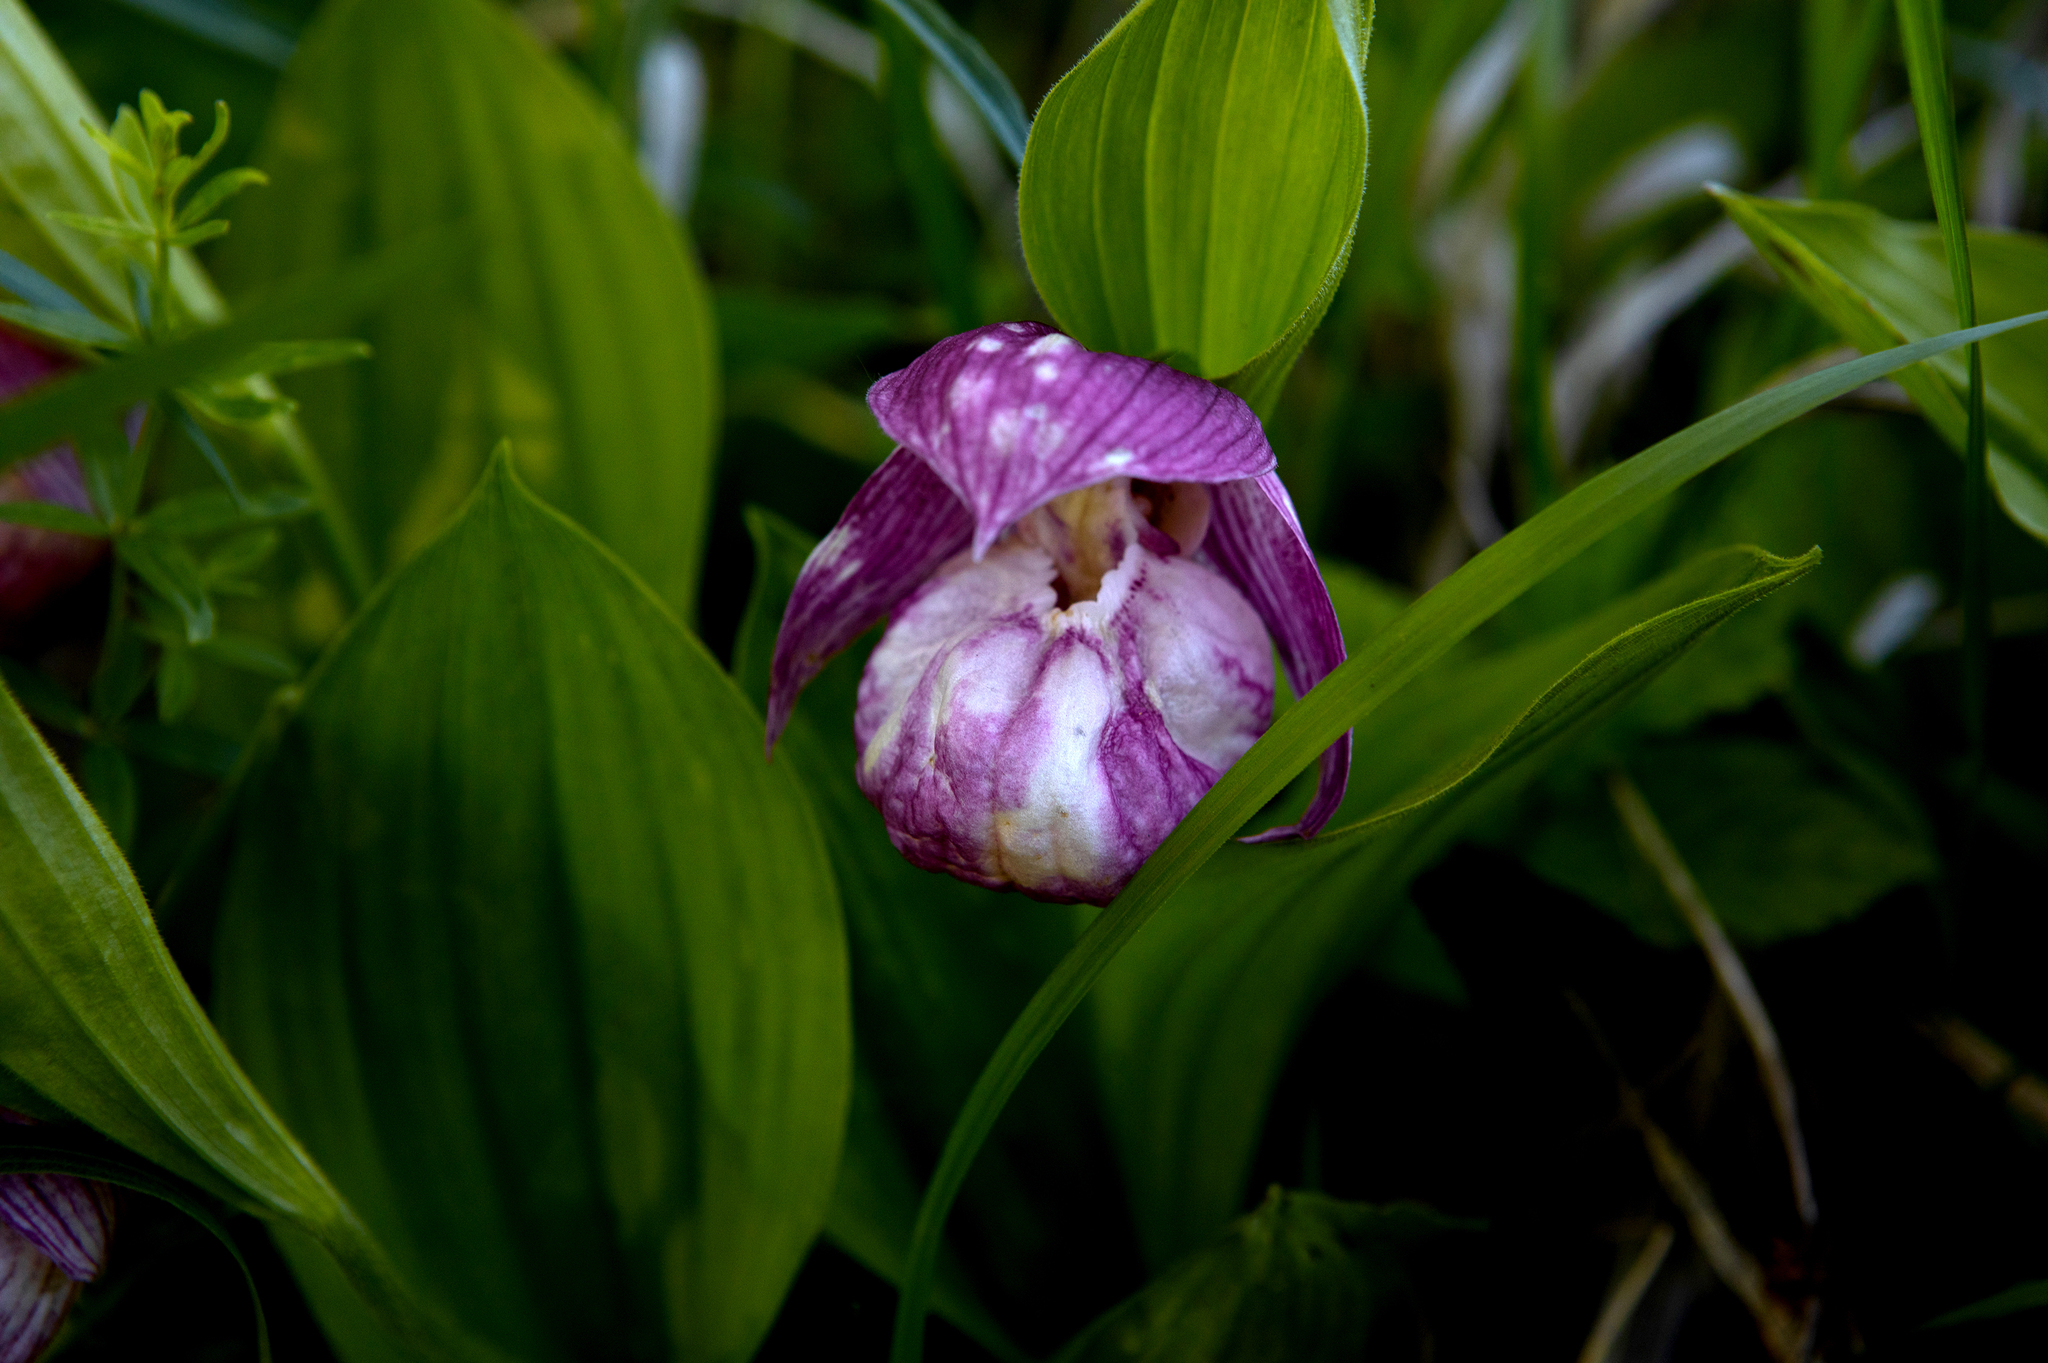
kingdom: Plantae
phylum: Tracheophyta
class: Liliopsida
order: Asparagales
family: Orchidaceae
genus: Cypripedium
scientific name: Cypripedium macranthos
